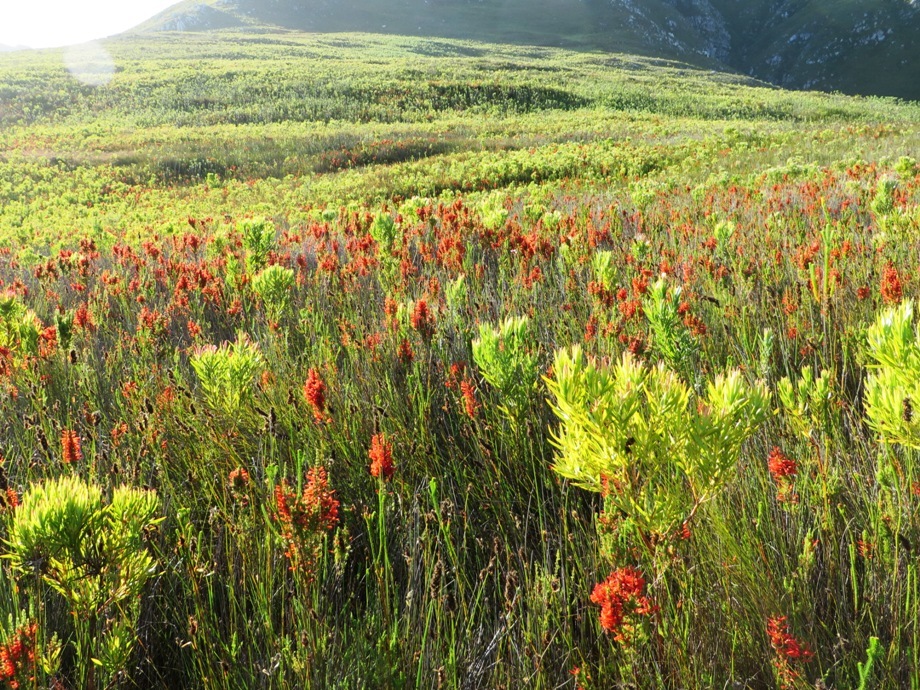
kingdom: Plantae
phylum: Tracheophyta
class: Magnoliopsida
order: Ericales
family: Ericaceae
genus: Erica
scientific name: Erica pillansii
